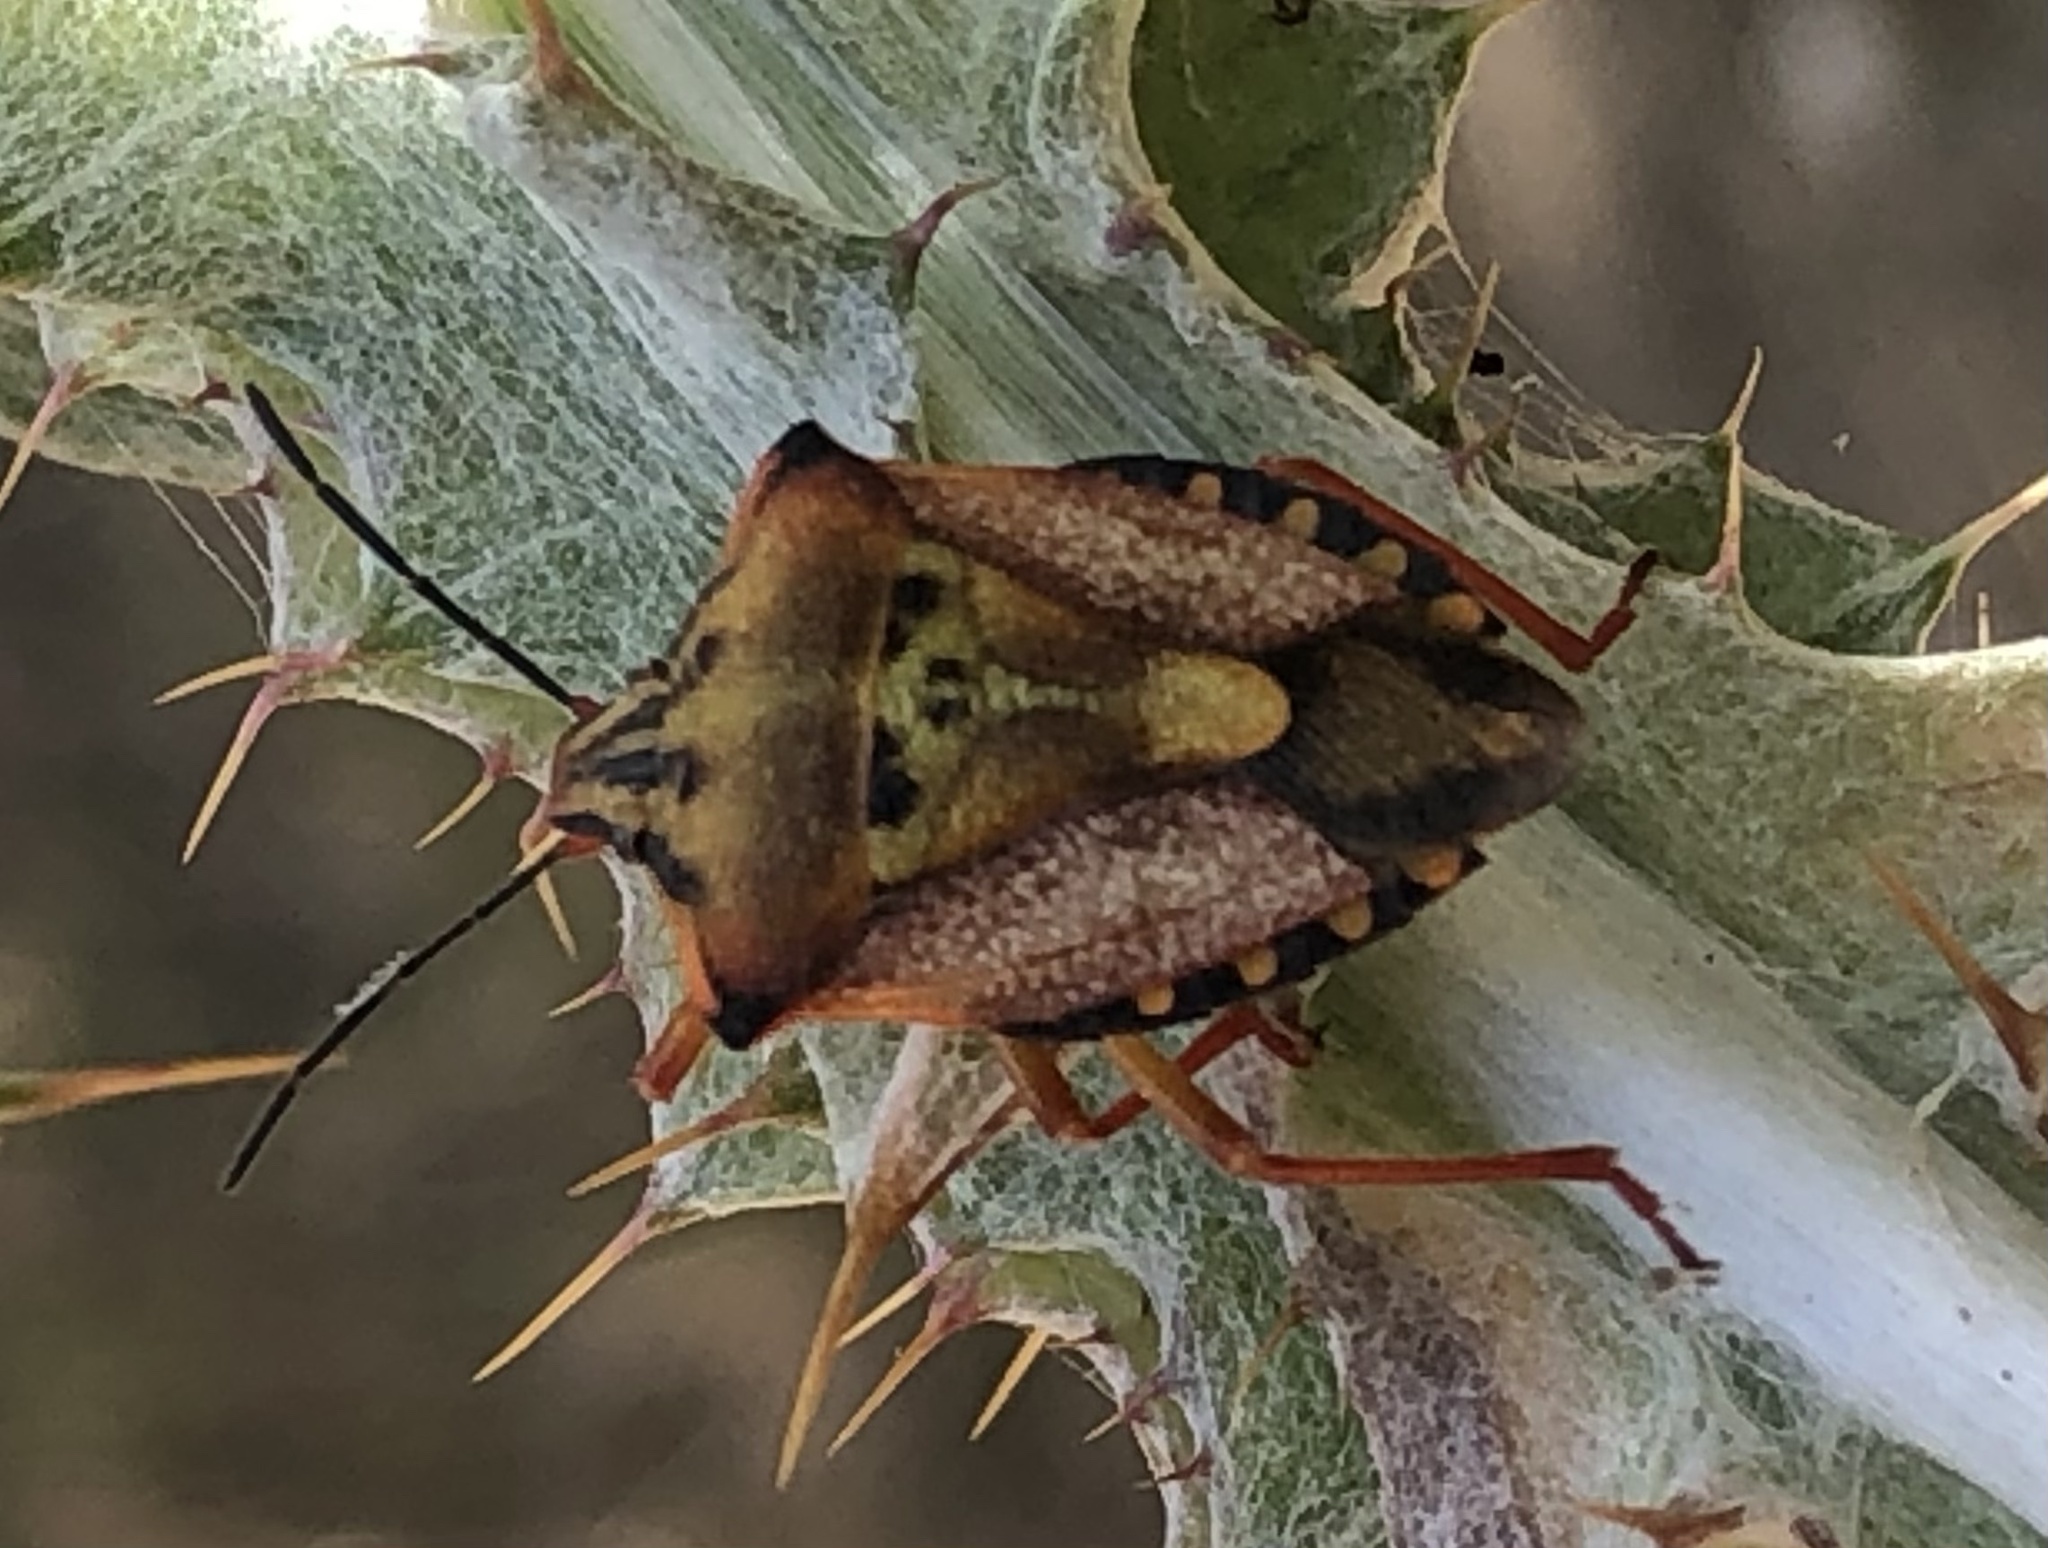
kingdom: Animalia
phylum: Arthropoda
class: Insecta
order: Hemiptera
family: Pentatomidae
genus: Carpocoris
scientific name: Carpocoris mediterraneus
